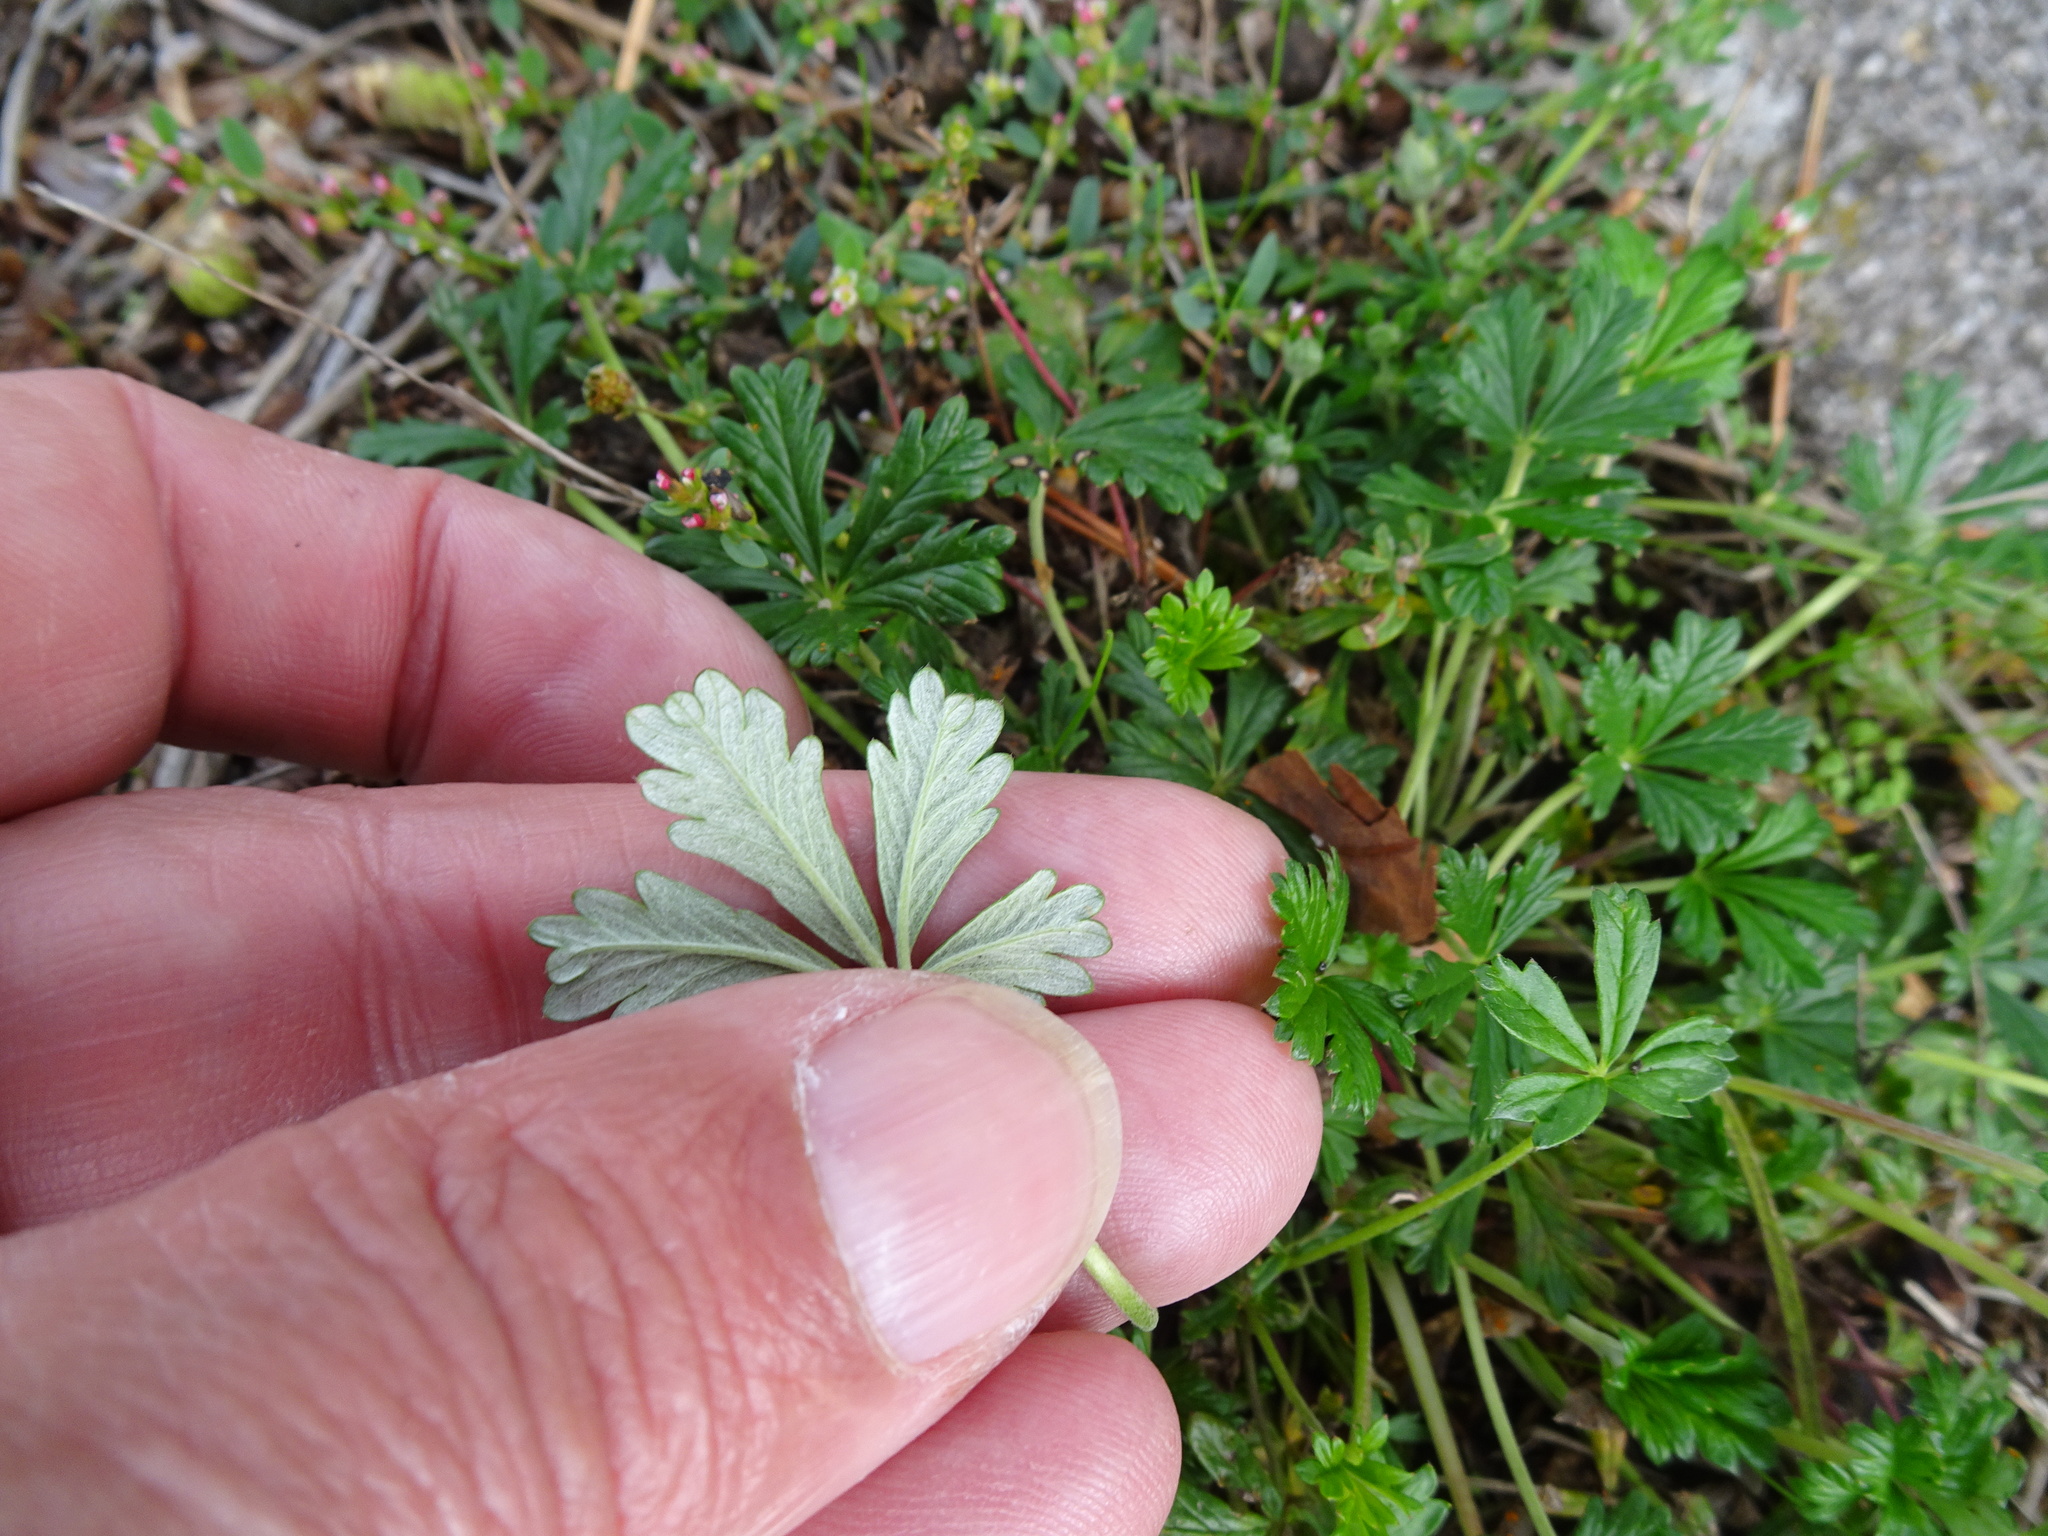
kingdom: Plantae
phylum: Tracheophyta
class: Magnoliopsida
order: Rosales
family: Rosaceae
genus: Potentilla
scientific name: Potentilla argentea
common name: Hoary cinquefoil
